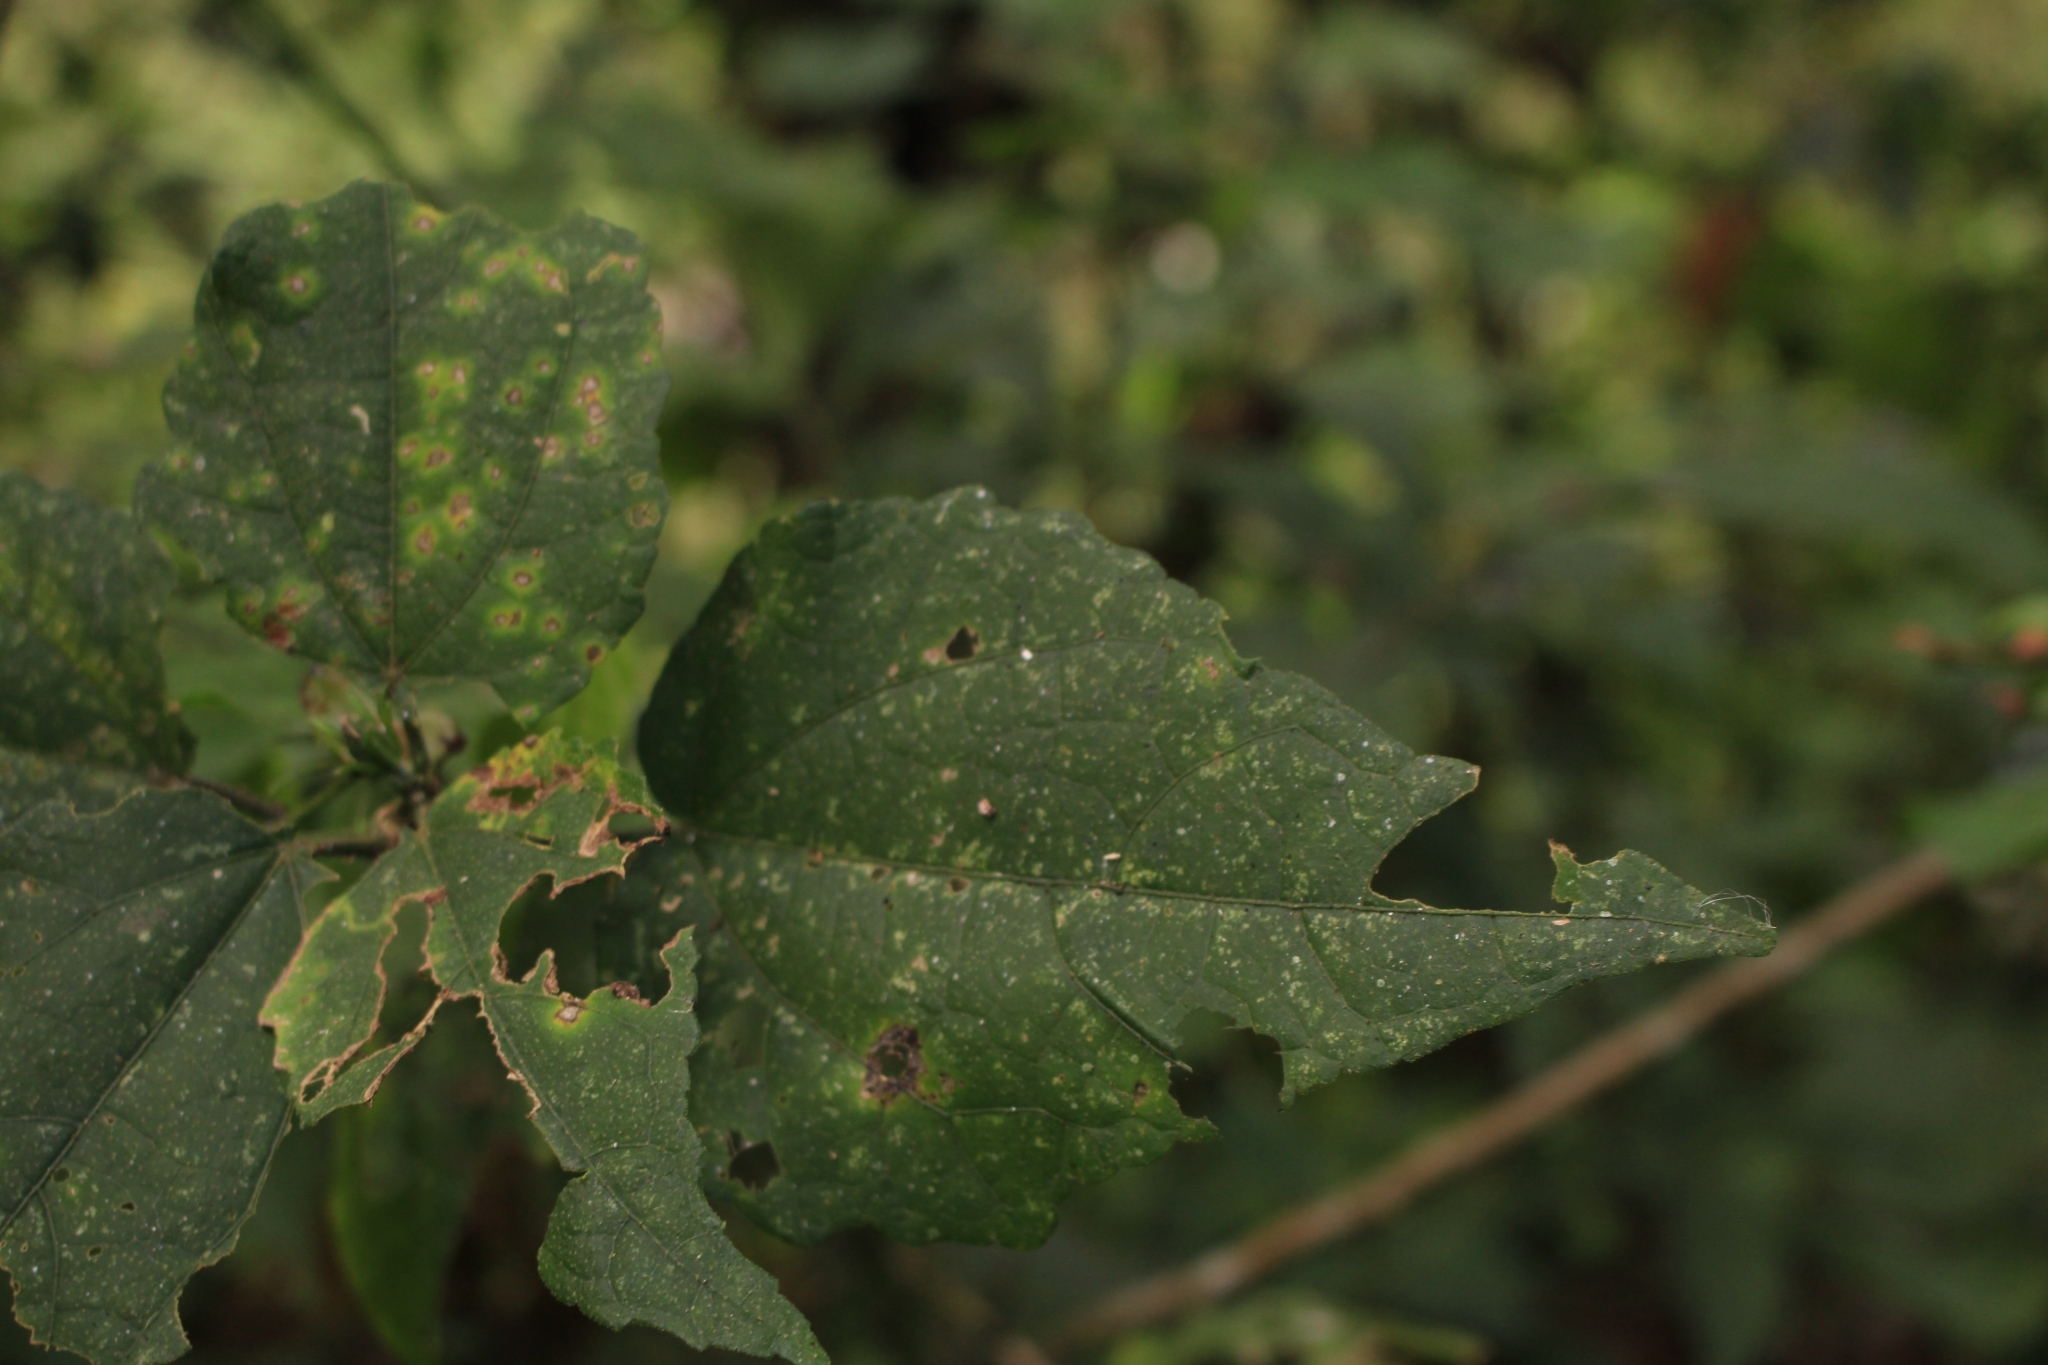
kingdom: Plantae
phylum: Tracheophyta
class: Magnoliopsida
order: Malvales
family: Malvaceae
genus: Malvaviscus
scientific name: Malvaviscus arboreus
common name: Wax mallow
